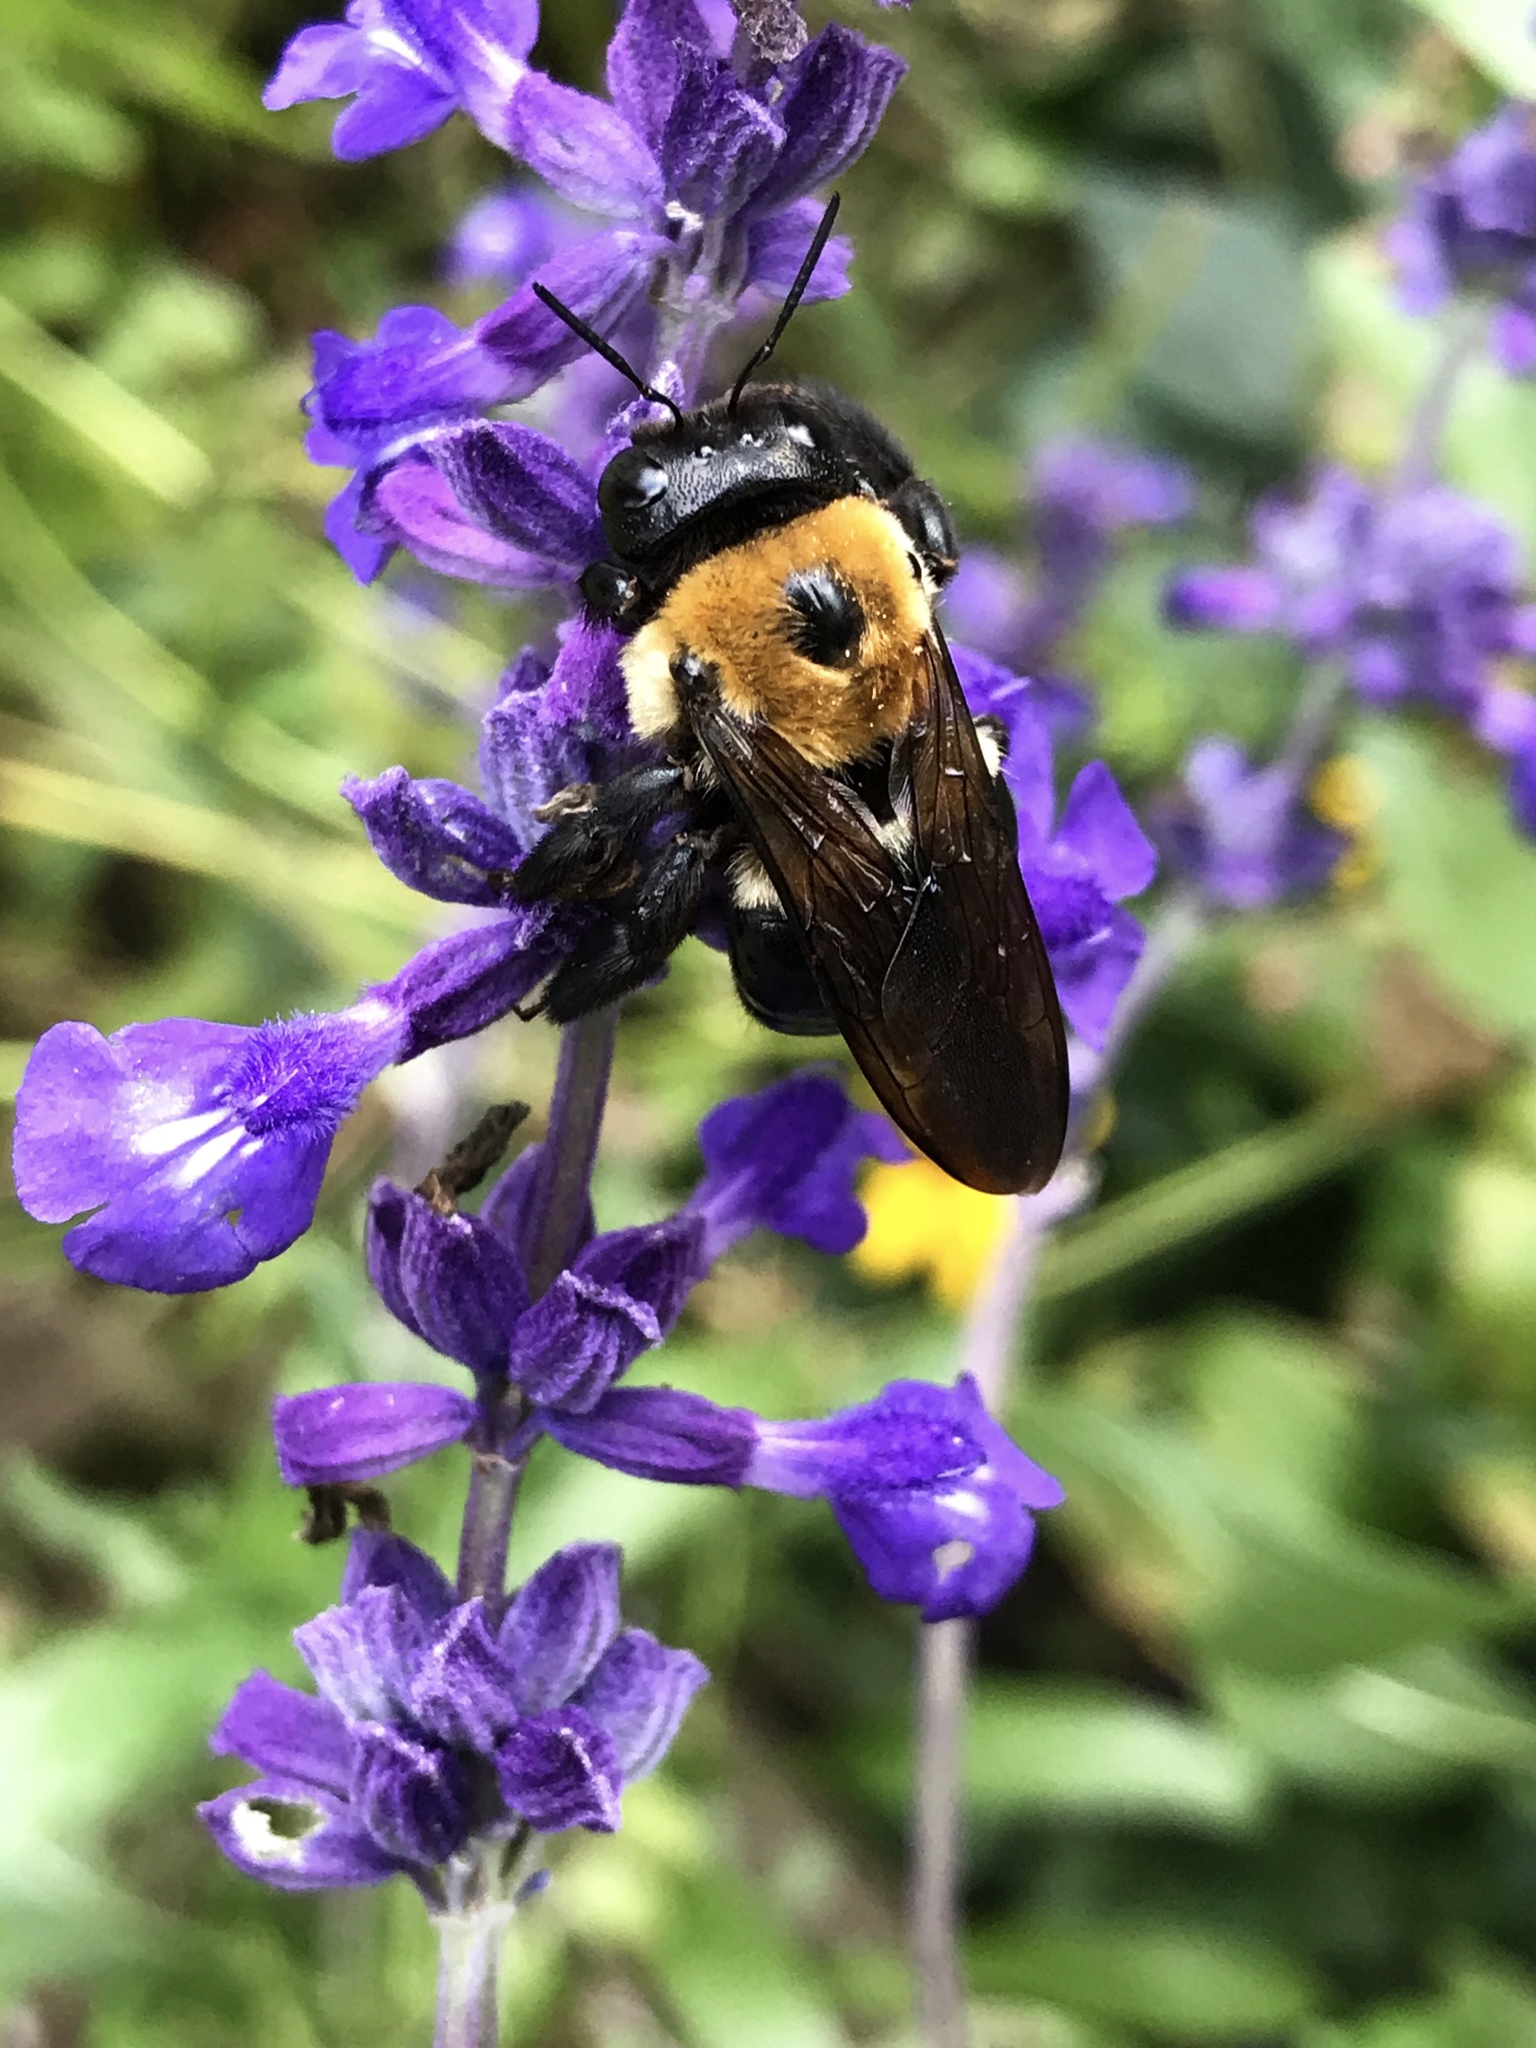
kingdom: Animalia
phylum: Arthropoda
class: Insecta
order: Hymenoptera
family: Apidae
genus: Xylocopa
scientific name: Xylocopa virginica
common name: Carpenter bee
